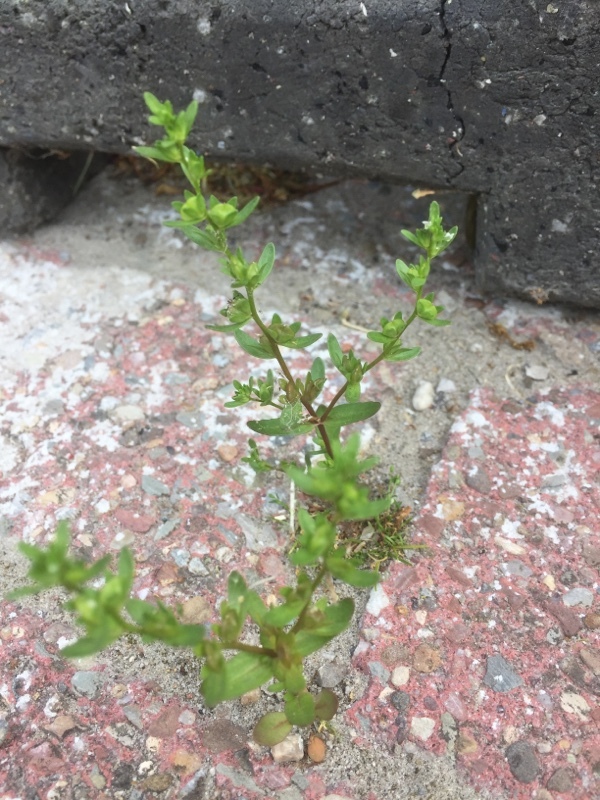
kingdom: Plantae
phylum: Tracheophyta
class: Magnoliopsida
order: Lamiales
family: Plantaginaceae
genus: Veronica
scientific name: Veronica peregrina
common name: Neckweed
